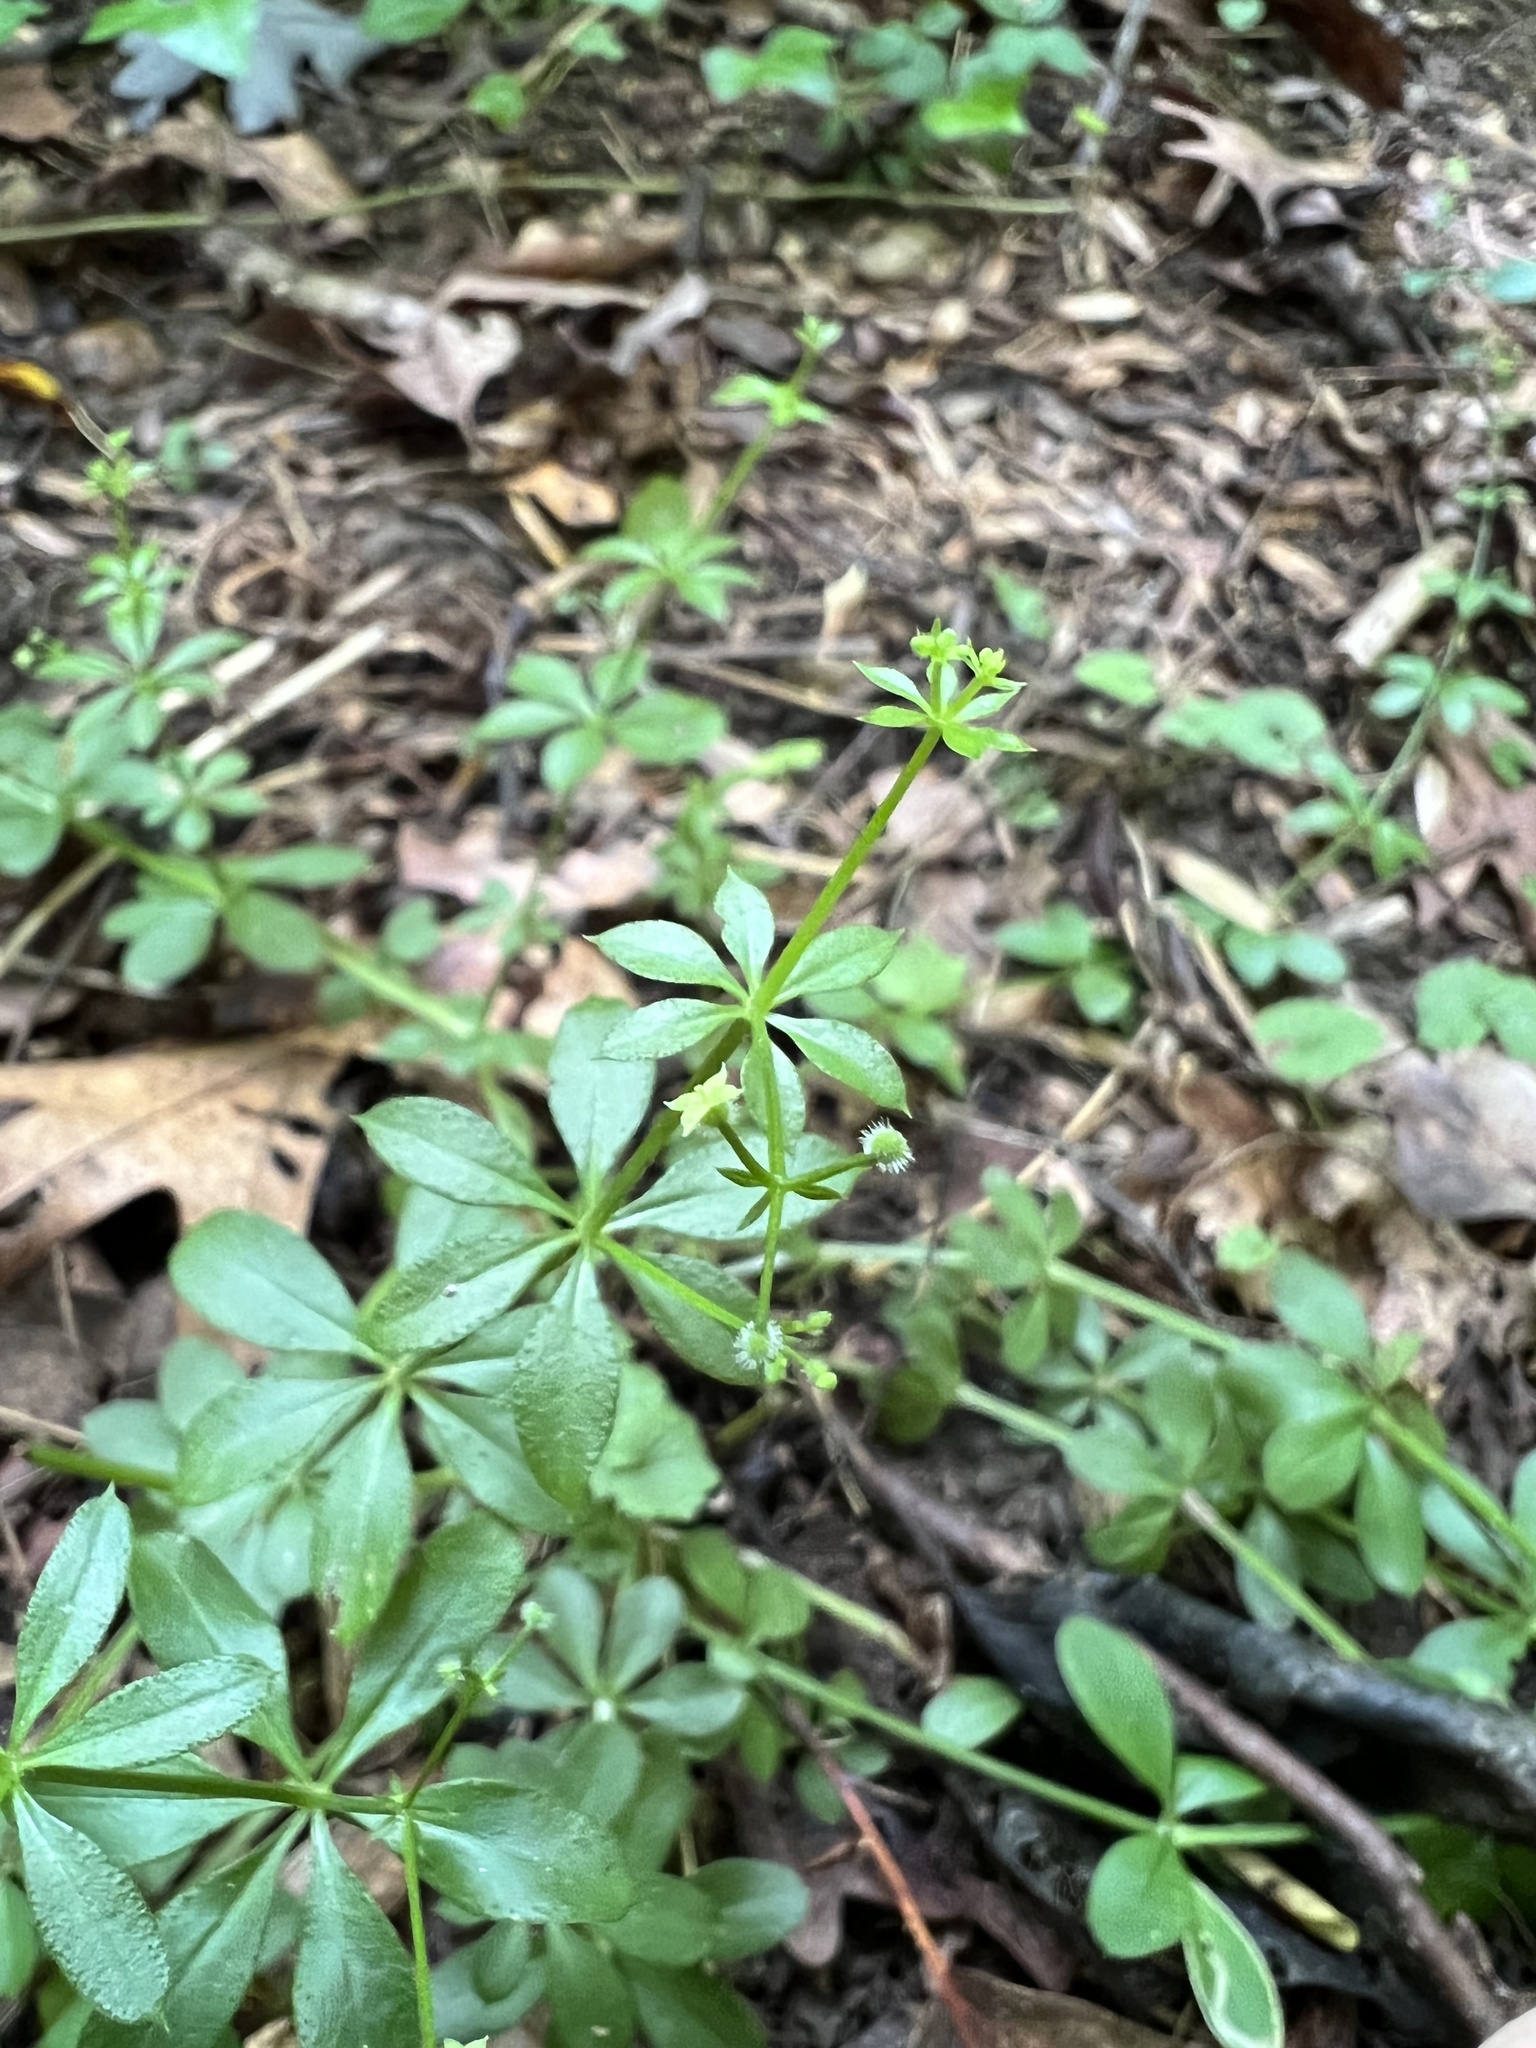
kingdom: Plantae
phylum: Tracheophyta
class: Magnoliopsida
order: Gentianales
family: Rubiaceae
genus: Galium
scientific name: Galium triflorum
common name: Fragrant bedstraw
